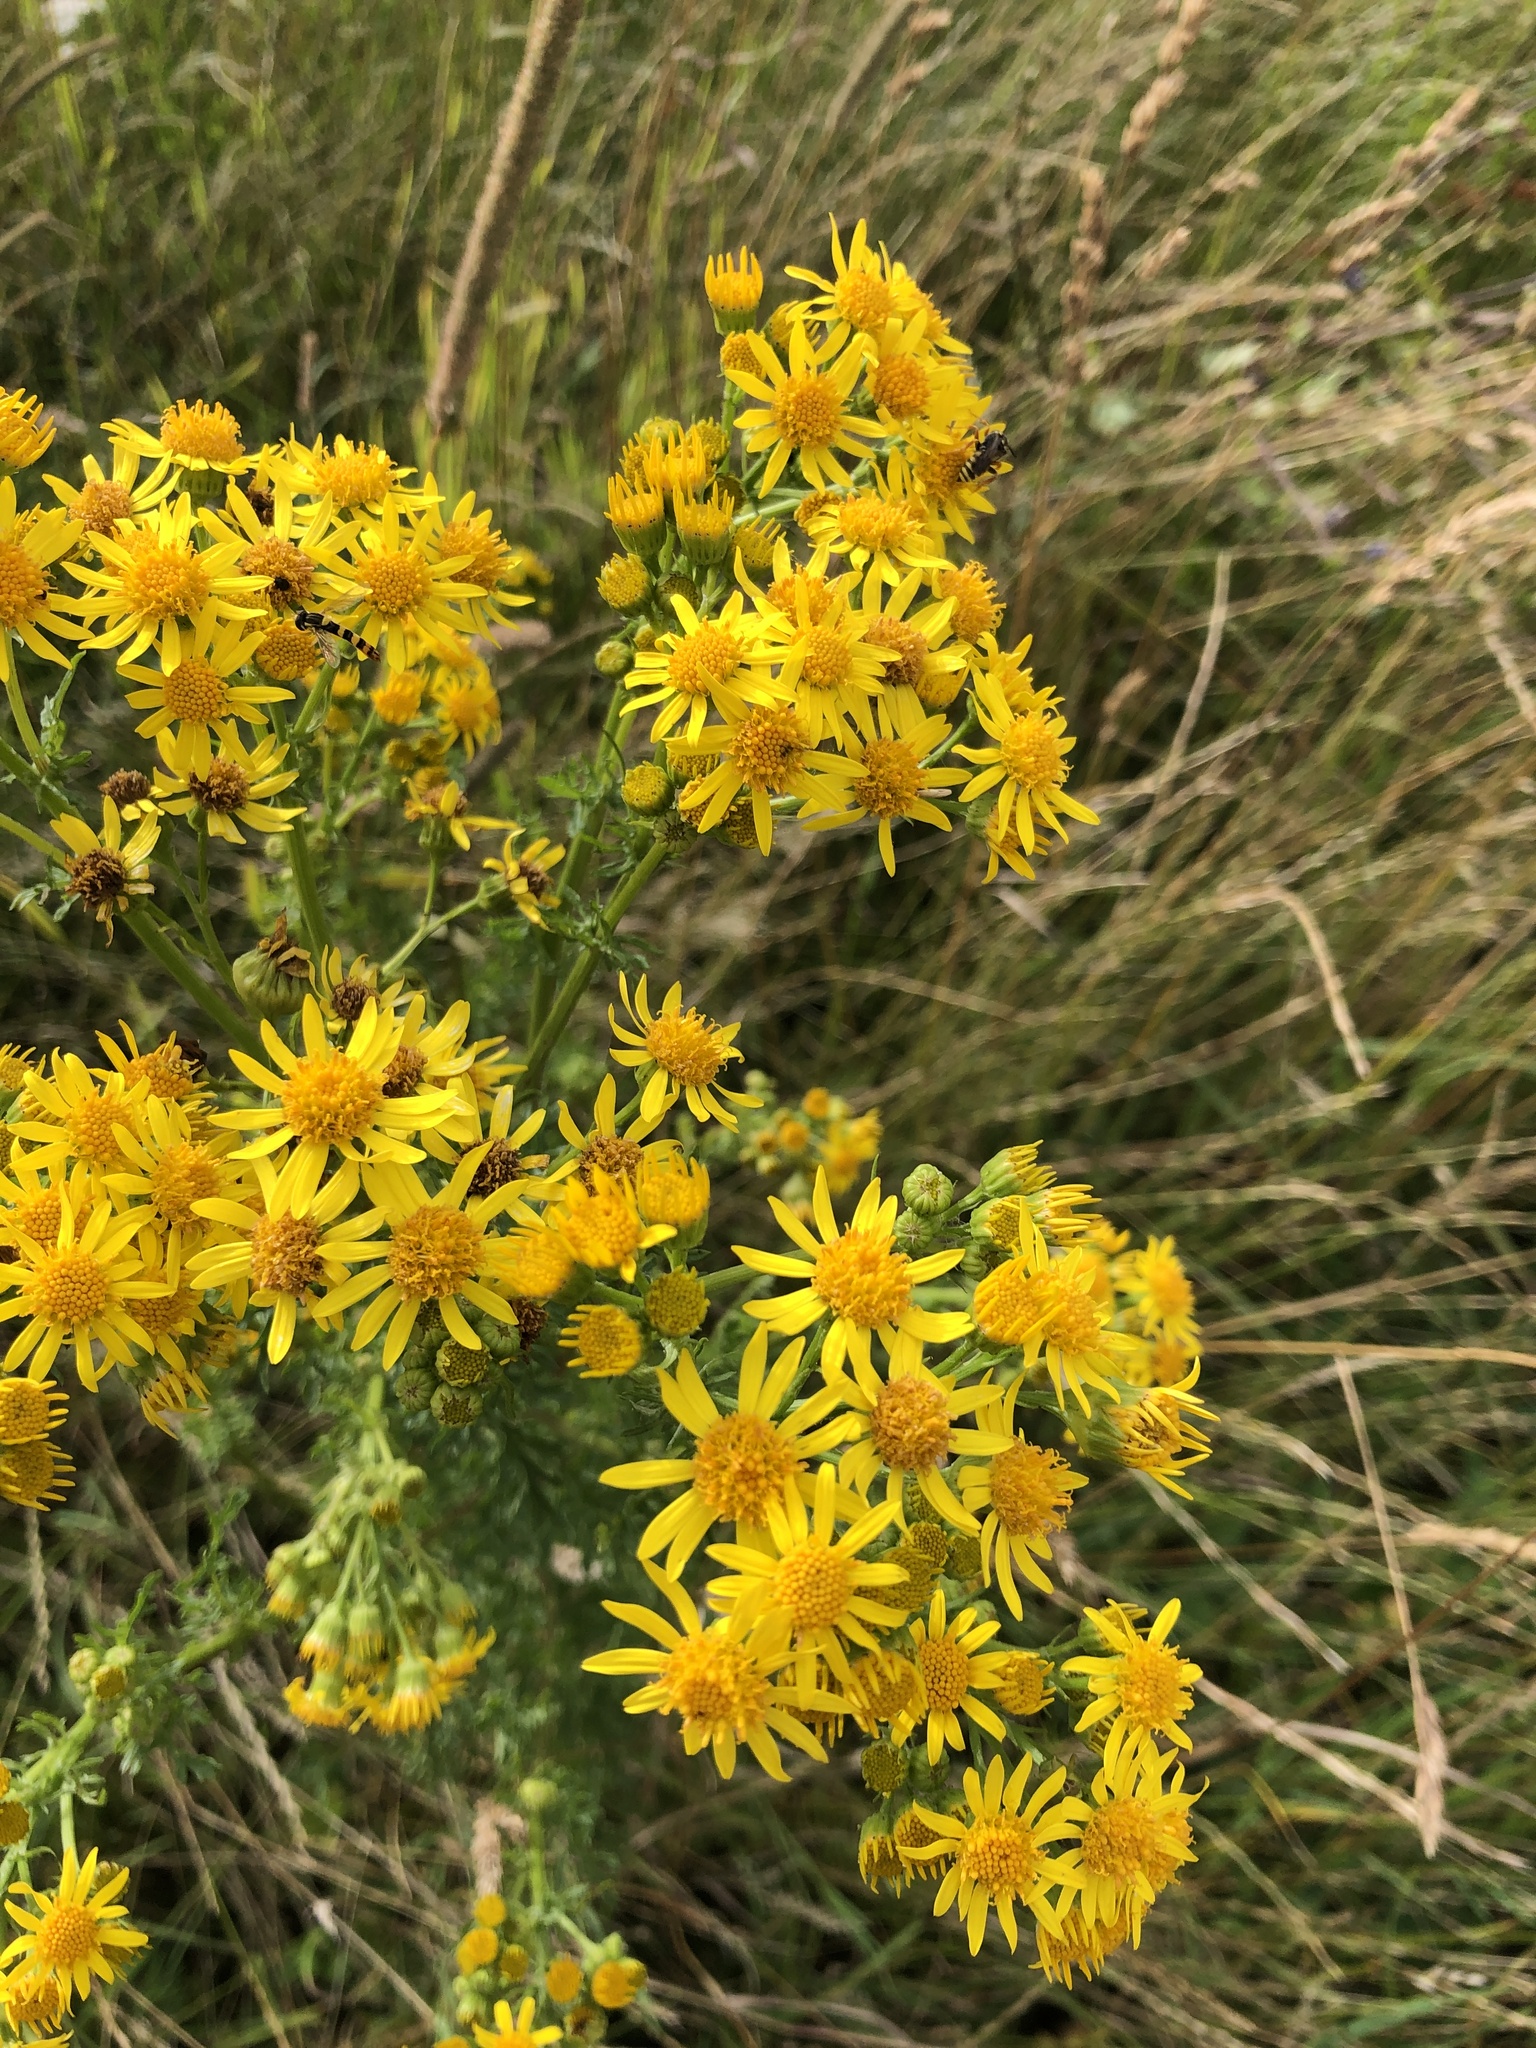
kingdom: Plantae
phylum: Tracheophyta
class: Magnoliopsida
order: Asterales
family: Asteraceae
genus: Jacobaea
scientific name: Jacobaea vulgaris
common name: Stinking willie
